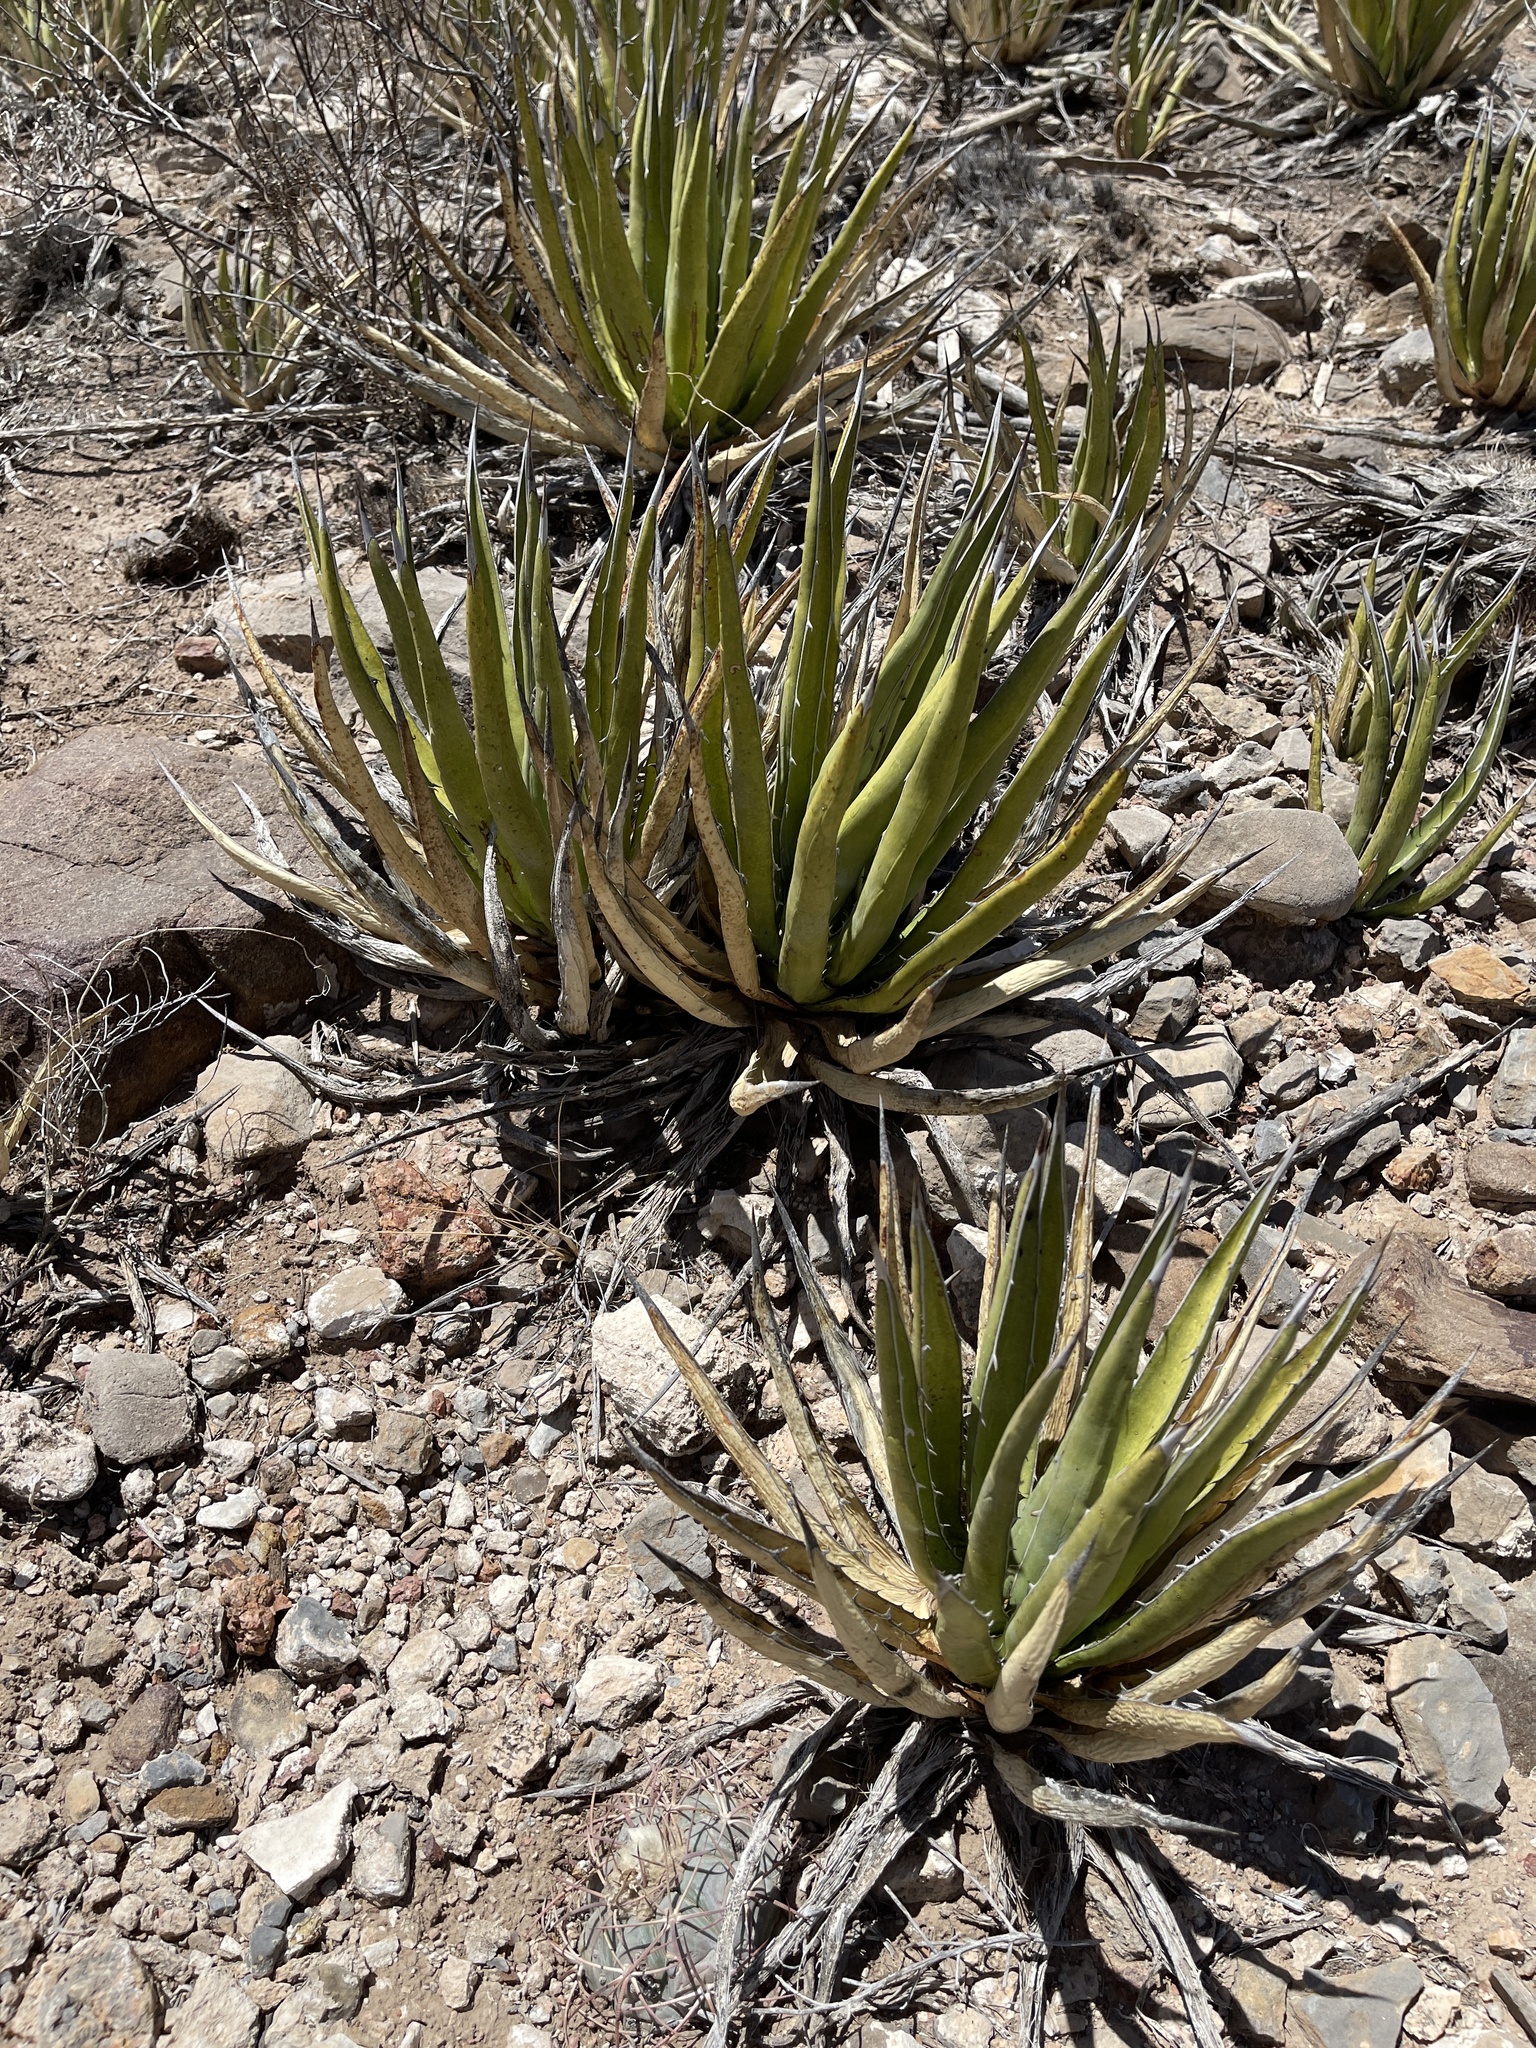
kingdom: Plantae
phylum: Tracheophyta
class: Liliopsida
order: Asparagales
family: Asparagaceae
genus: Agave
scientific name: Agave lechuguilla
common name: Lecheguilla agave
